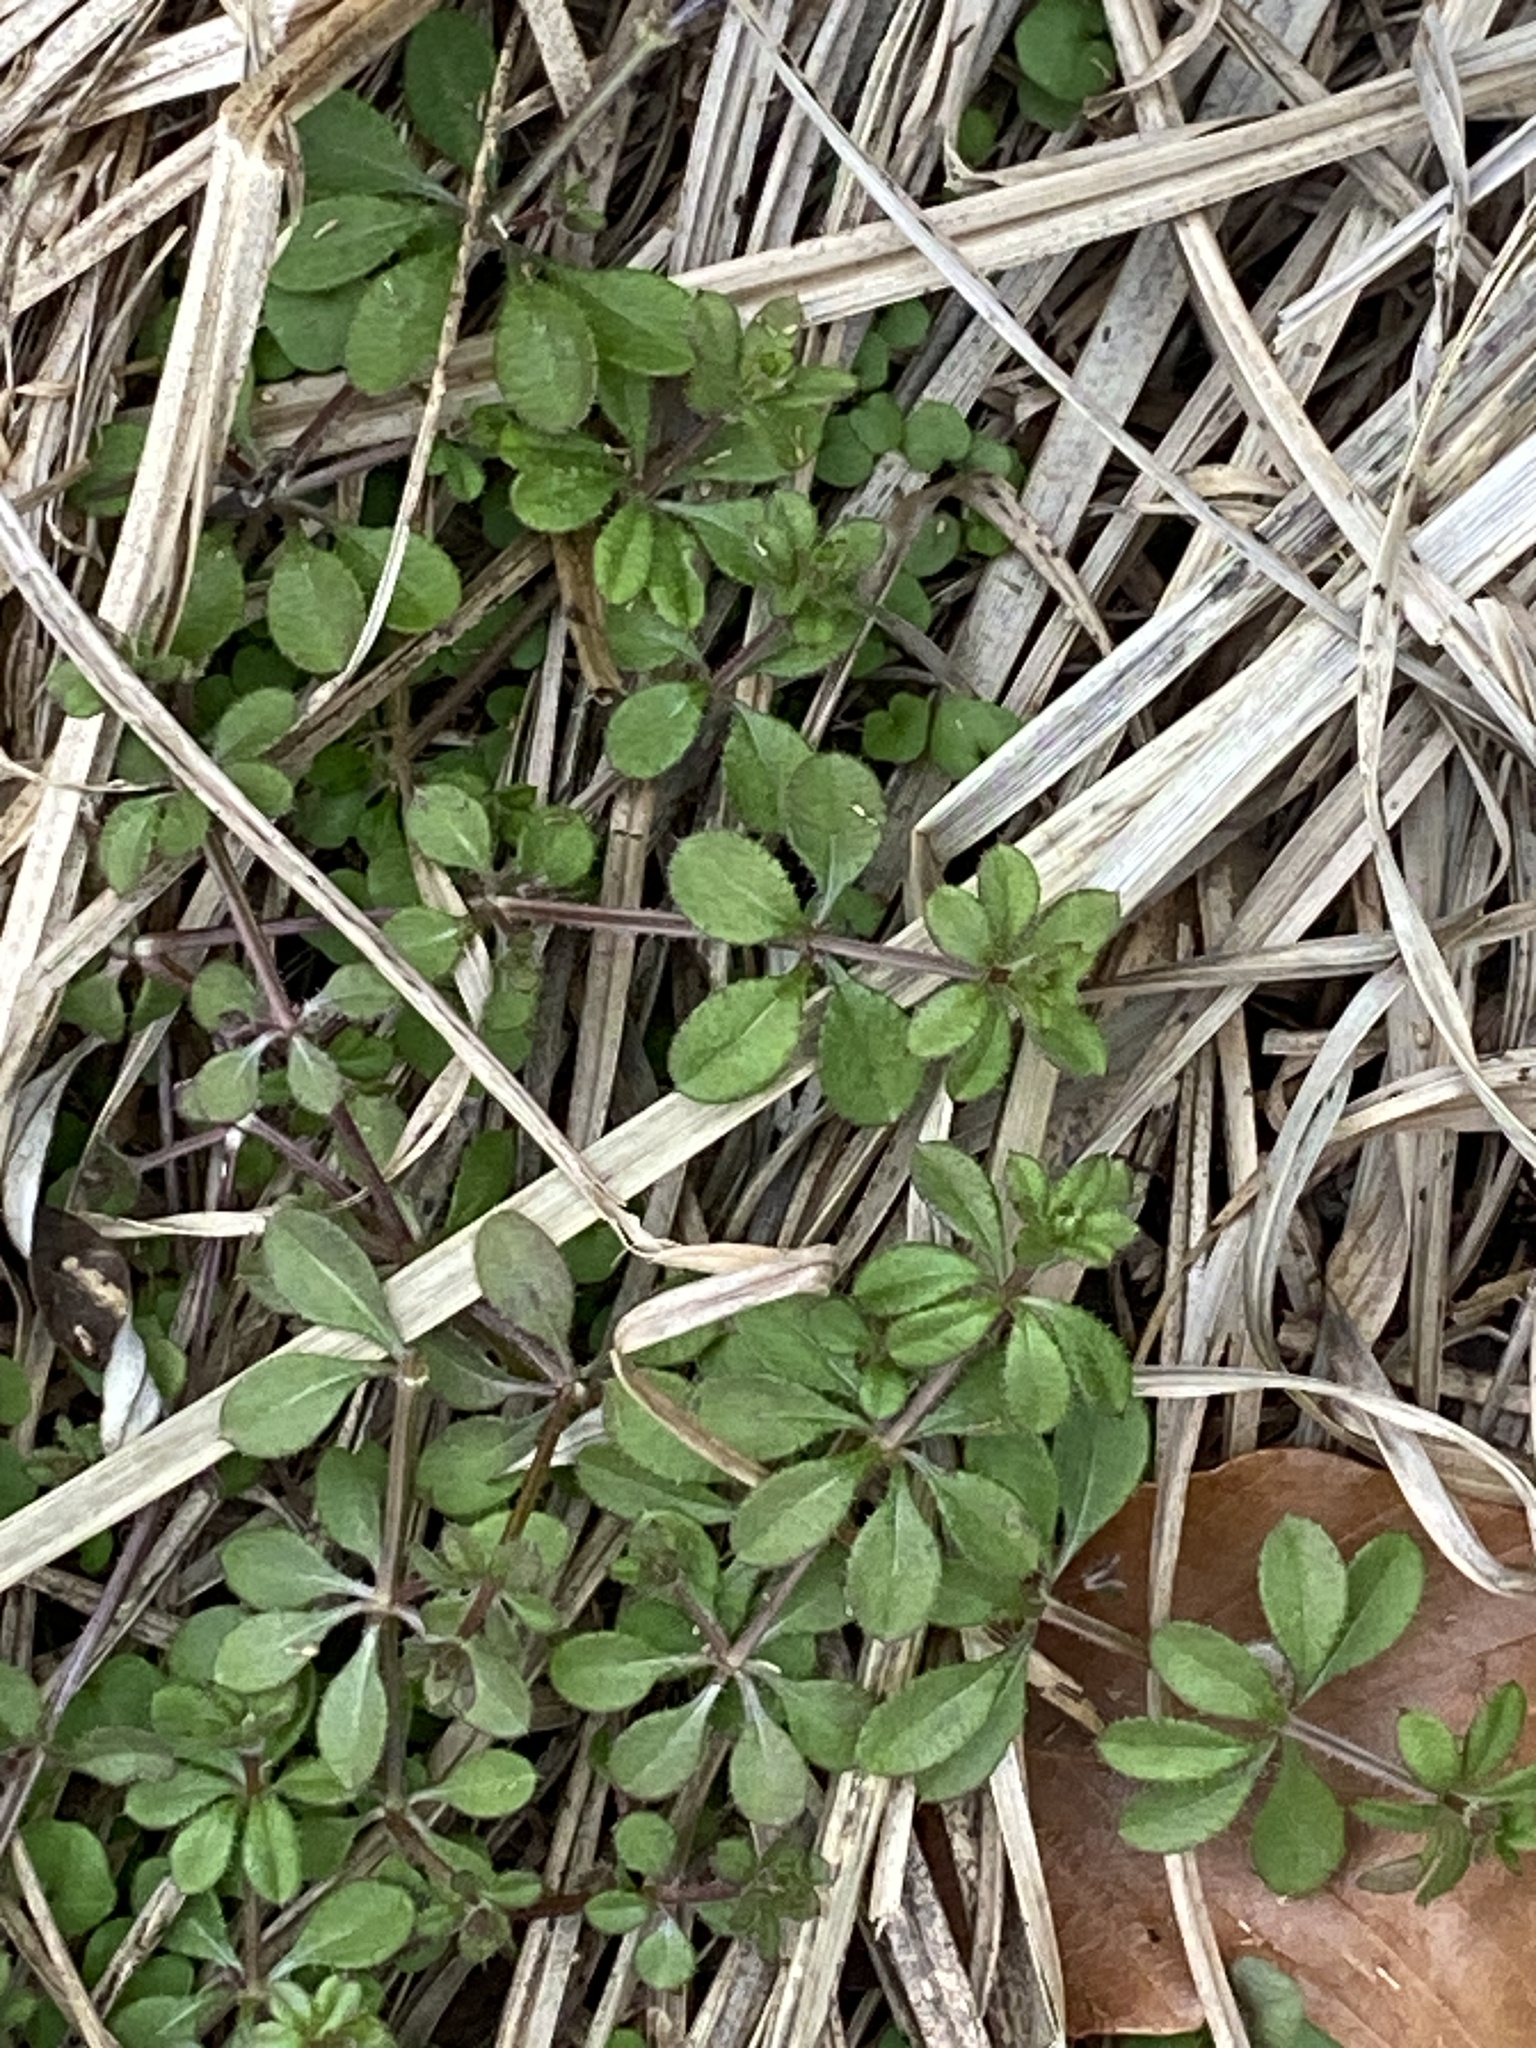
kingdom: Plantae
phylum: Tracheophyta
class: Magnoliopsida
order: Gentianales
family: Rubiaceae
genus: Galium
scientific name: Galium aparine
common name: Cleavers
